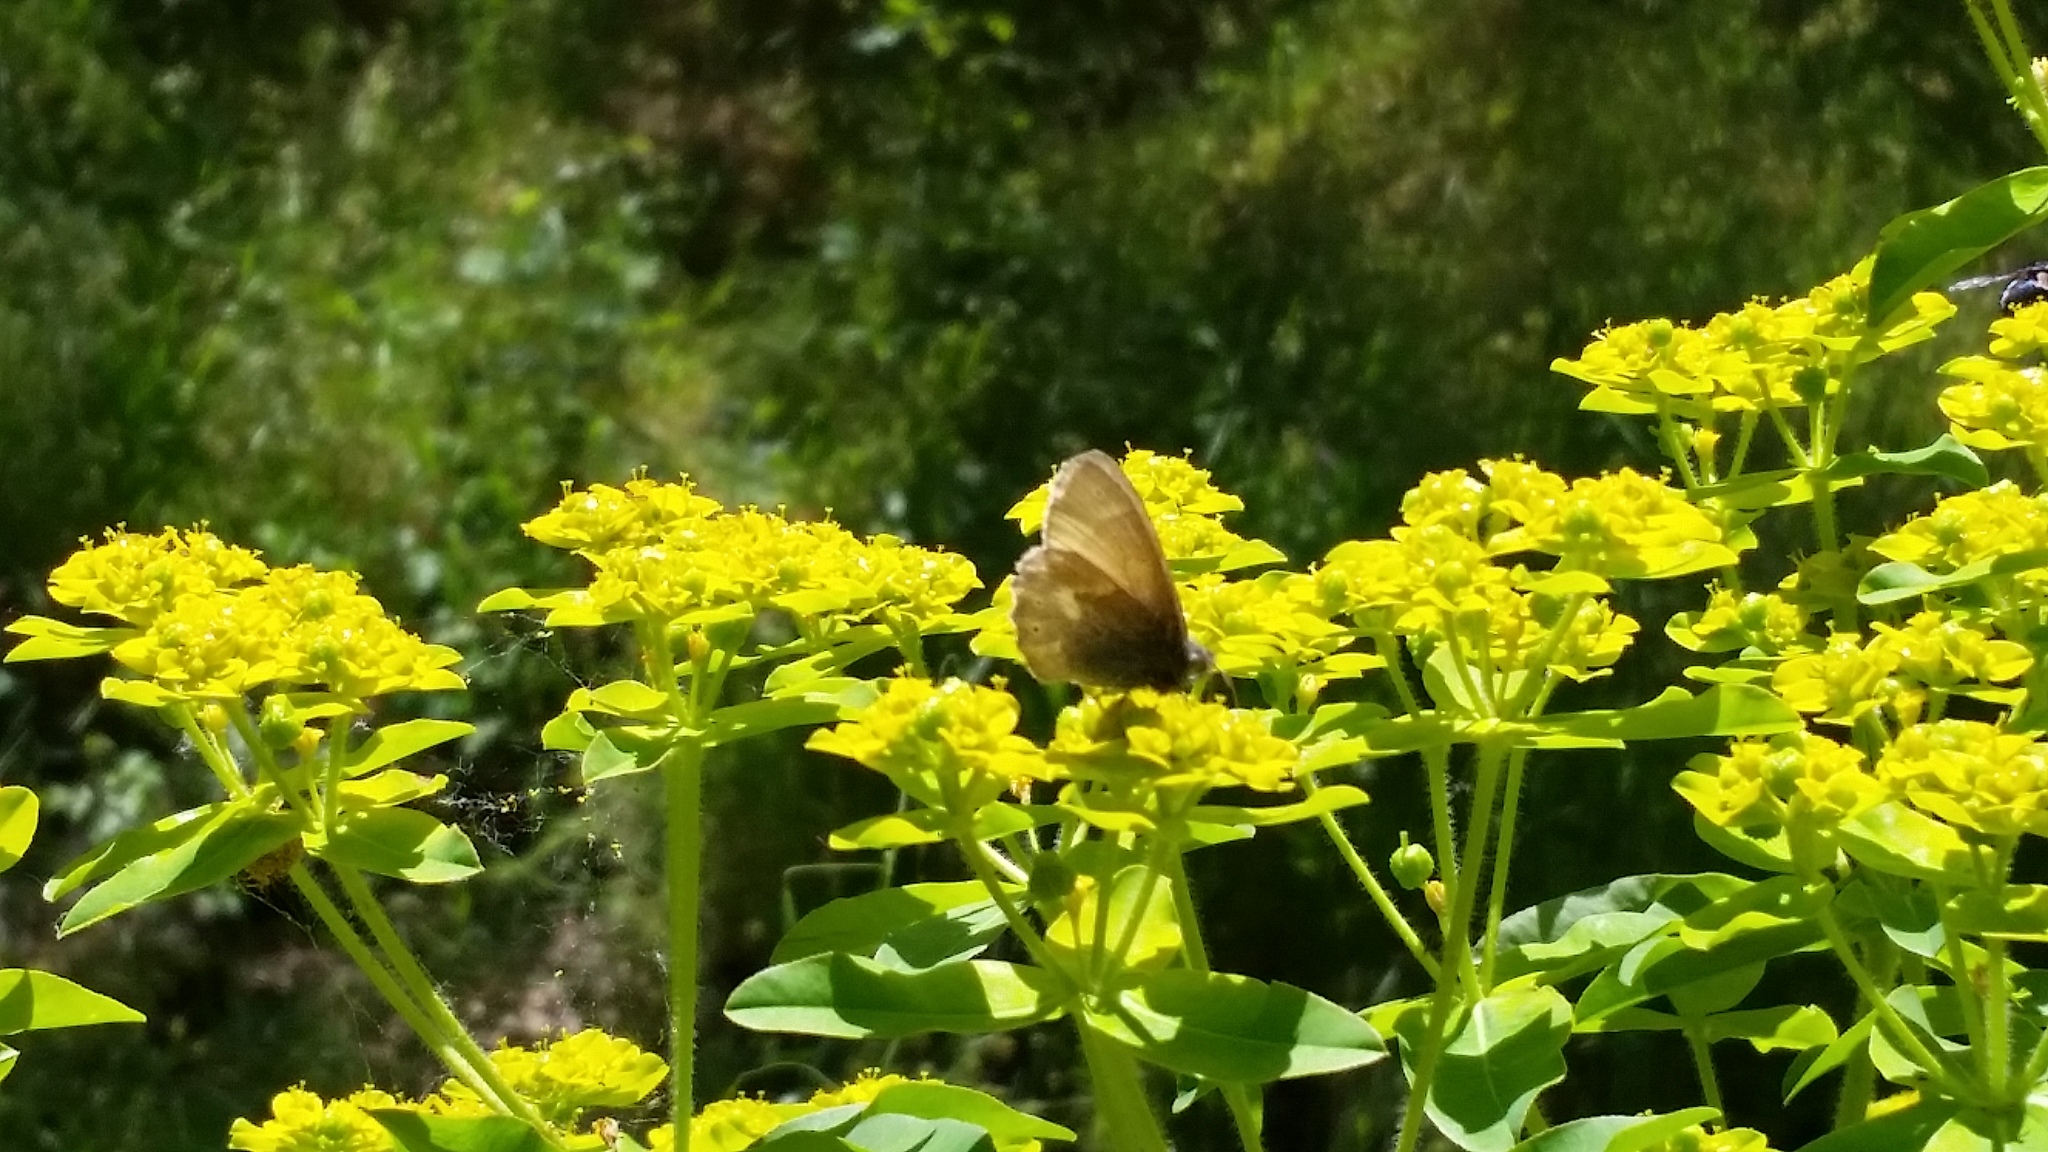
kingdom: Plantae
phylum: Tracheophyta
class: Magnoliopsida
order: Malpighiales
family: Euphorbiaceae
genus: Euphorbia
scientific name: Euphorbia oblongata
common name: Balkan spurge
